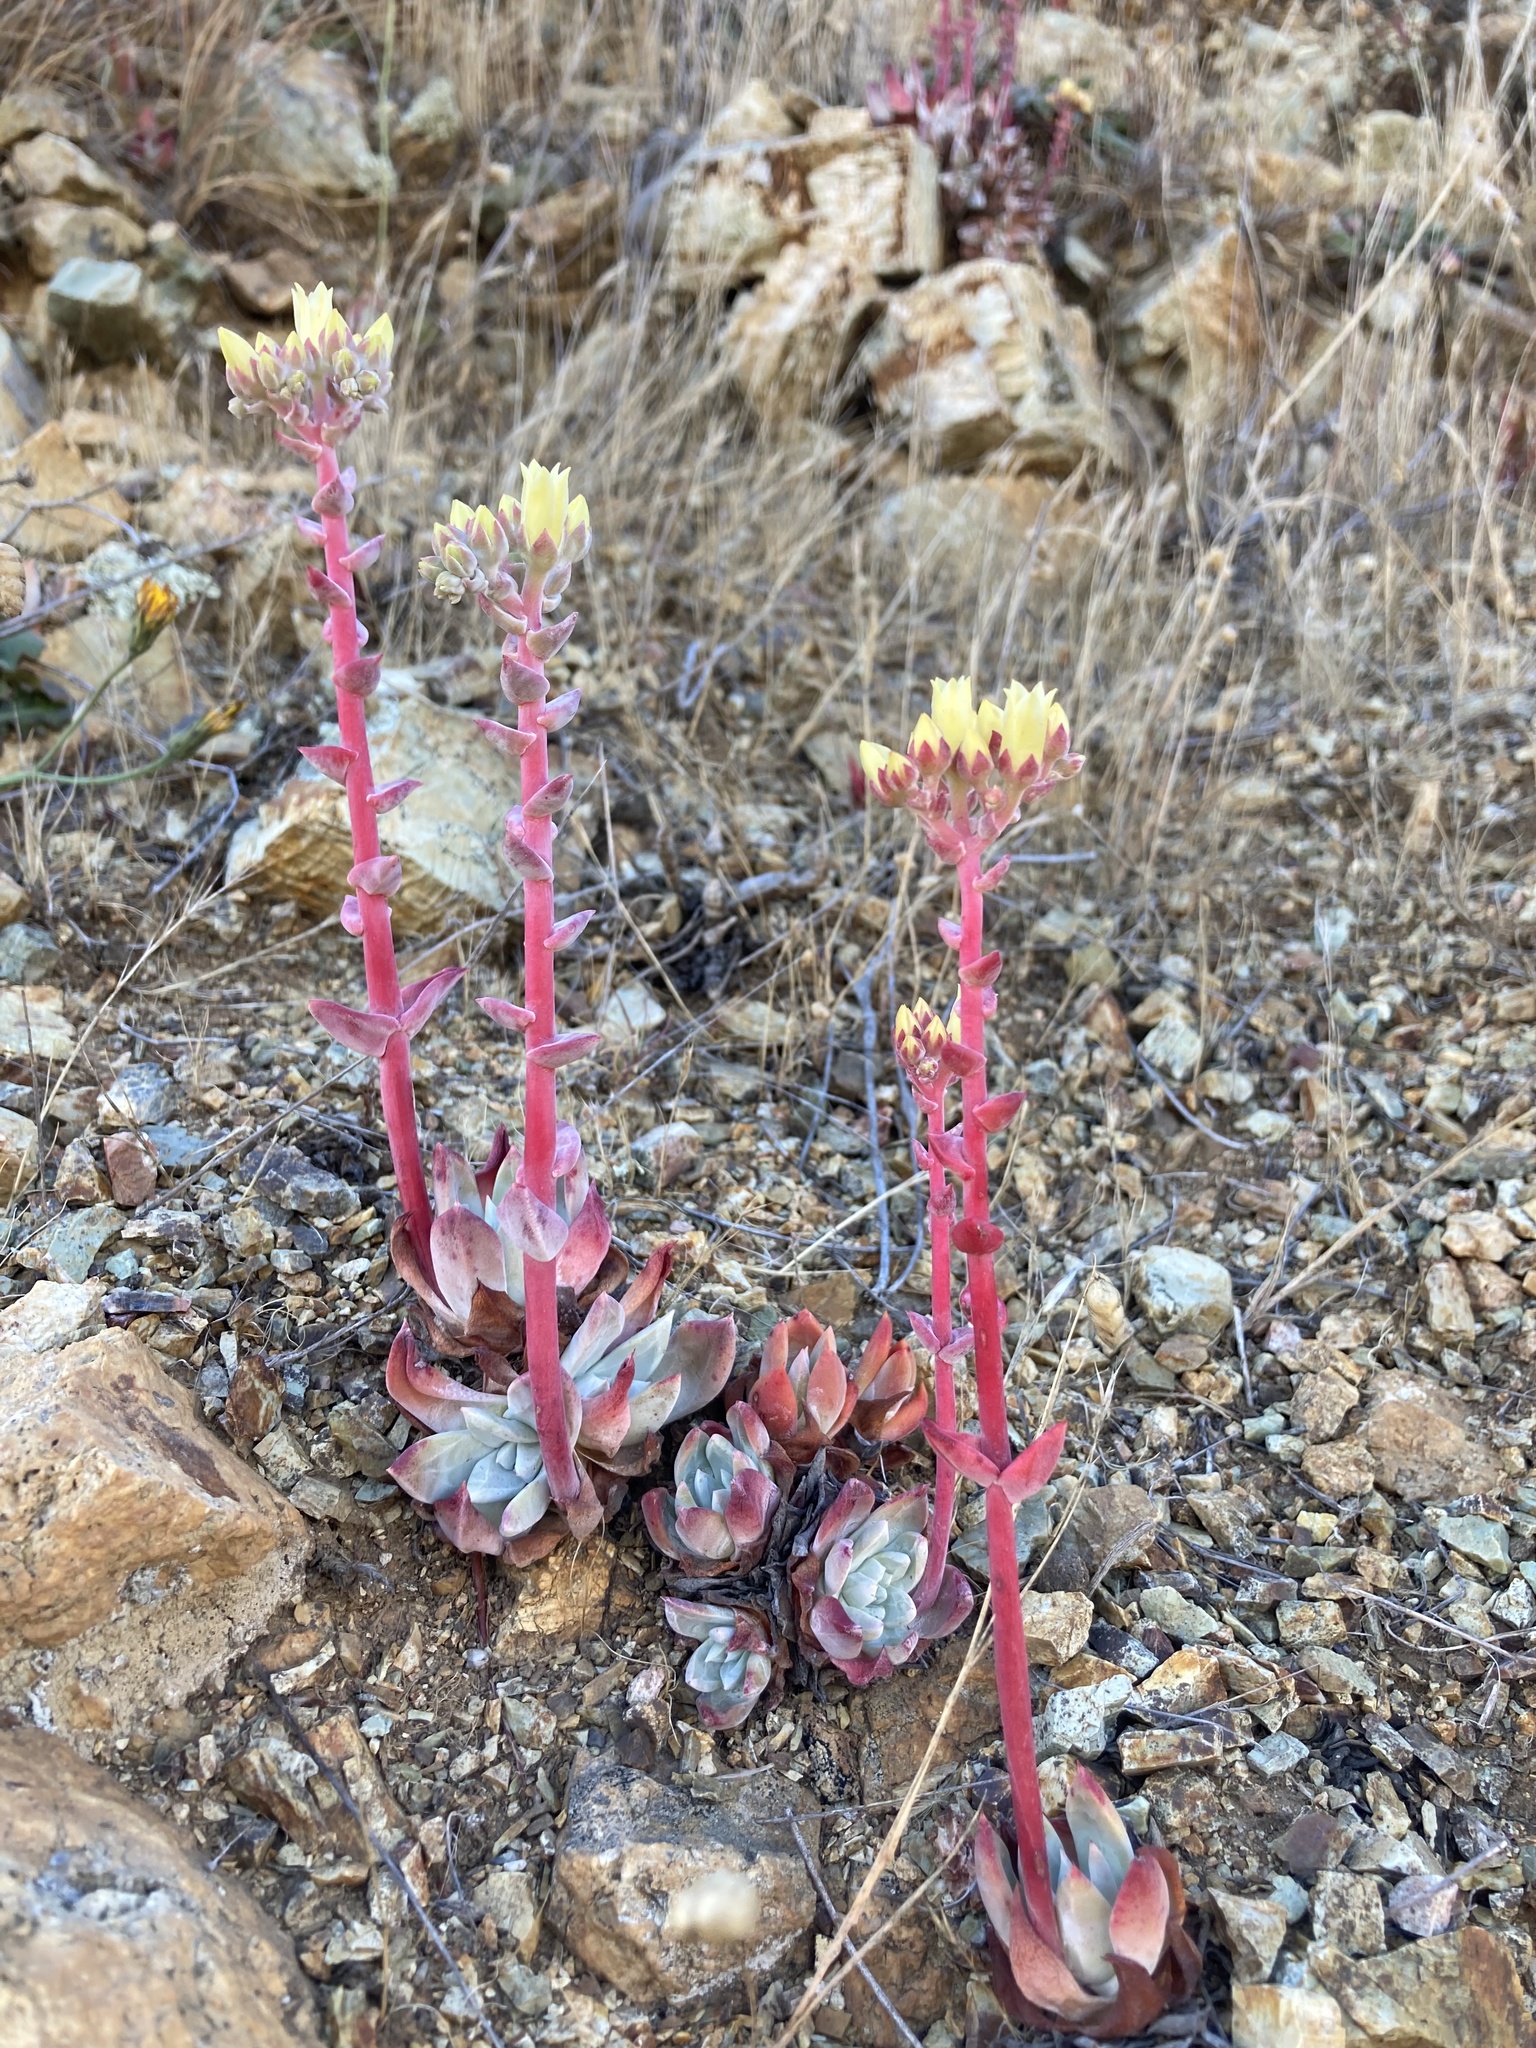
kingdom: Plantae
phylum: Tracheophyta
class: Magnoliopsida
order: Saxifragales
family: Crassulaceae
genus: Dudleya
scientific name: Dudleya farinosa
